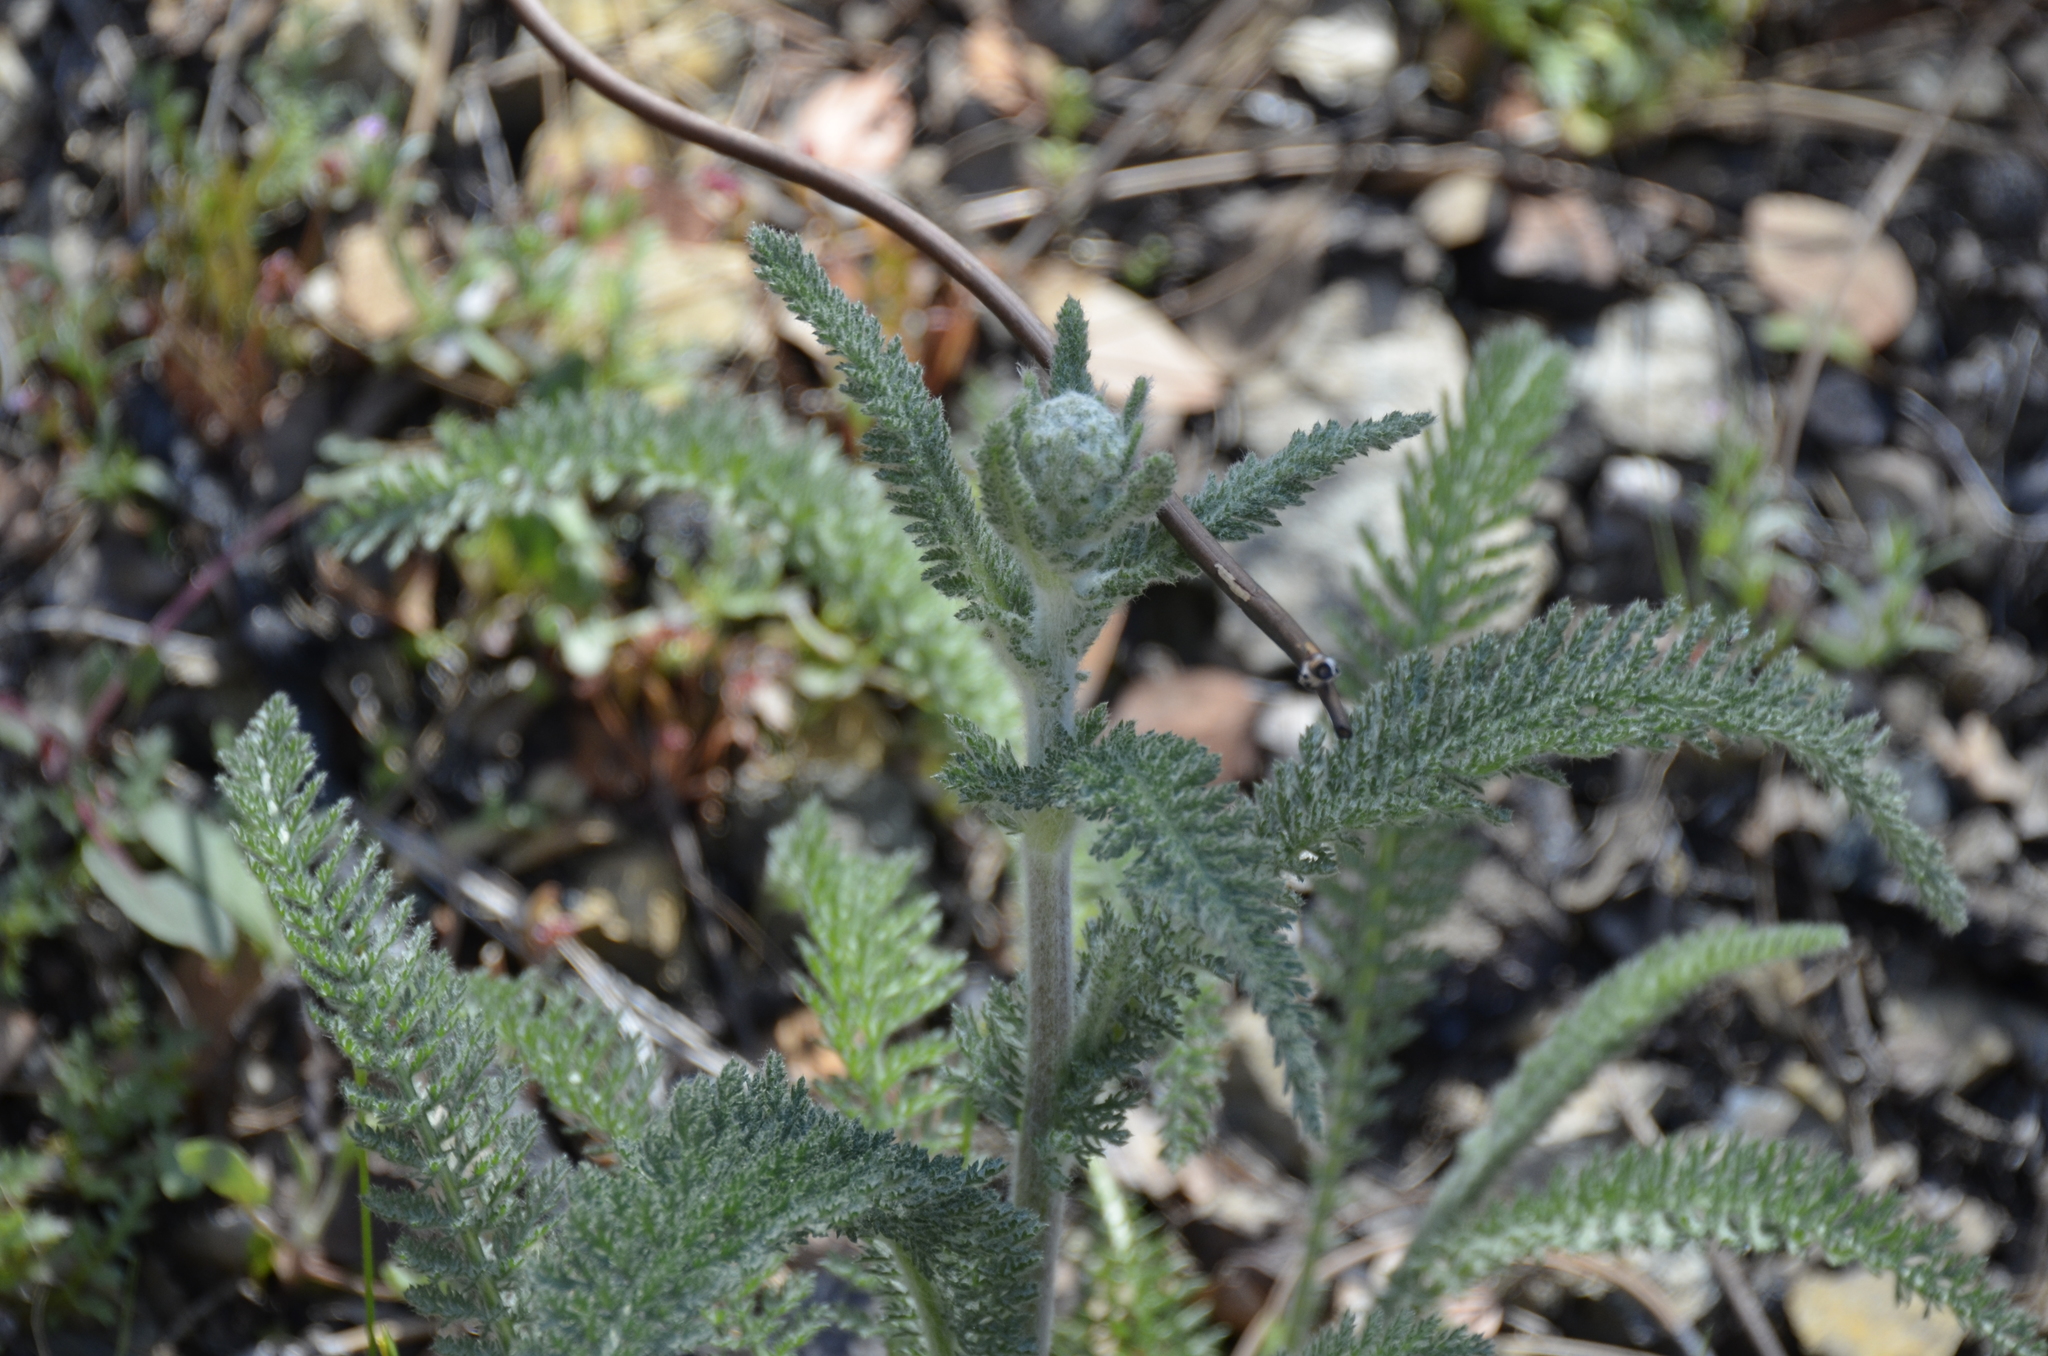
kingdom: Plantae
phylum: Tracheophyta
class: Magnoliopsida
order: Asterales
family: Asteraceae
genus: Achillea
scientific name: Achillea millefolium
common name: Yarrow
